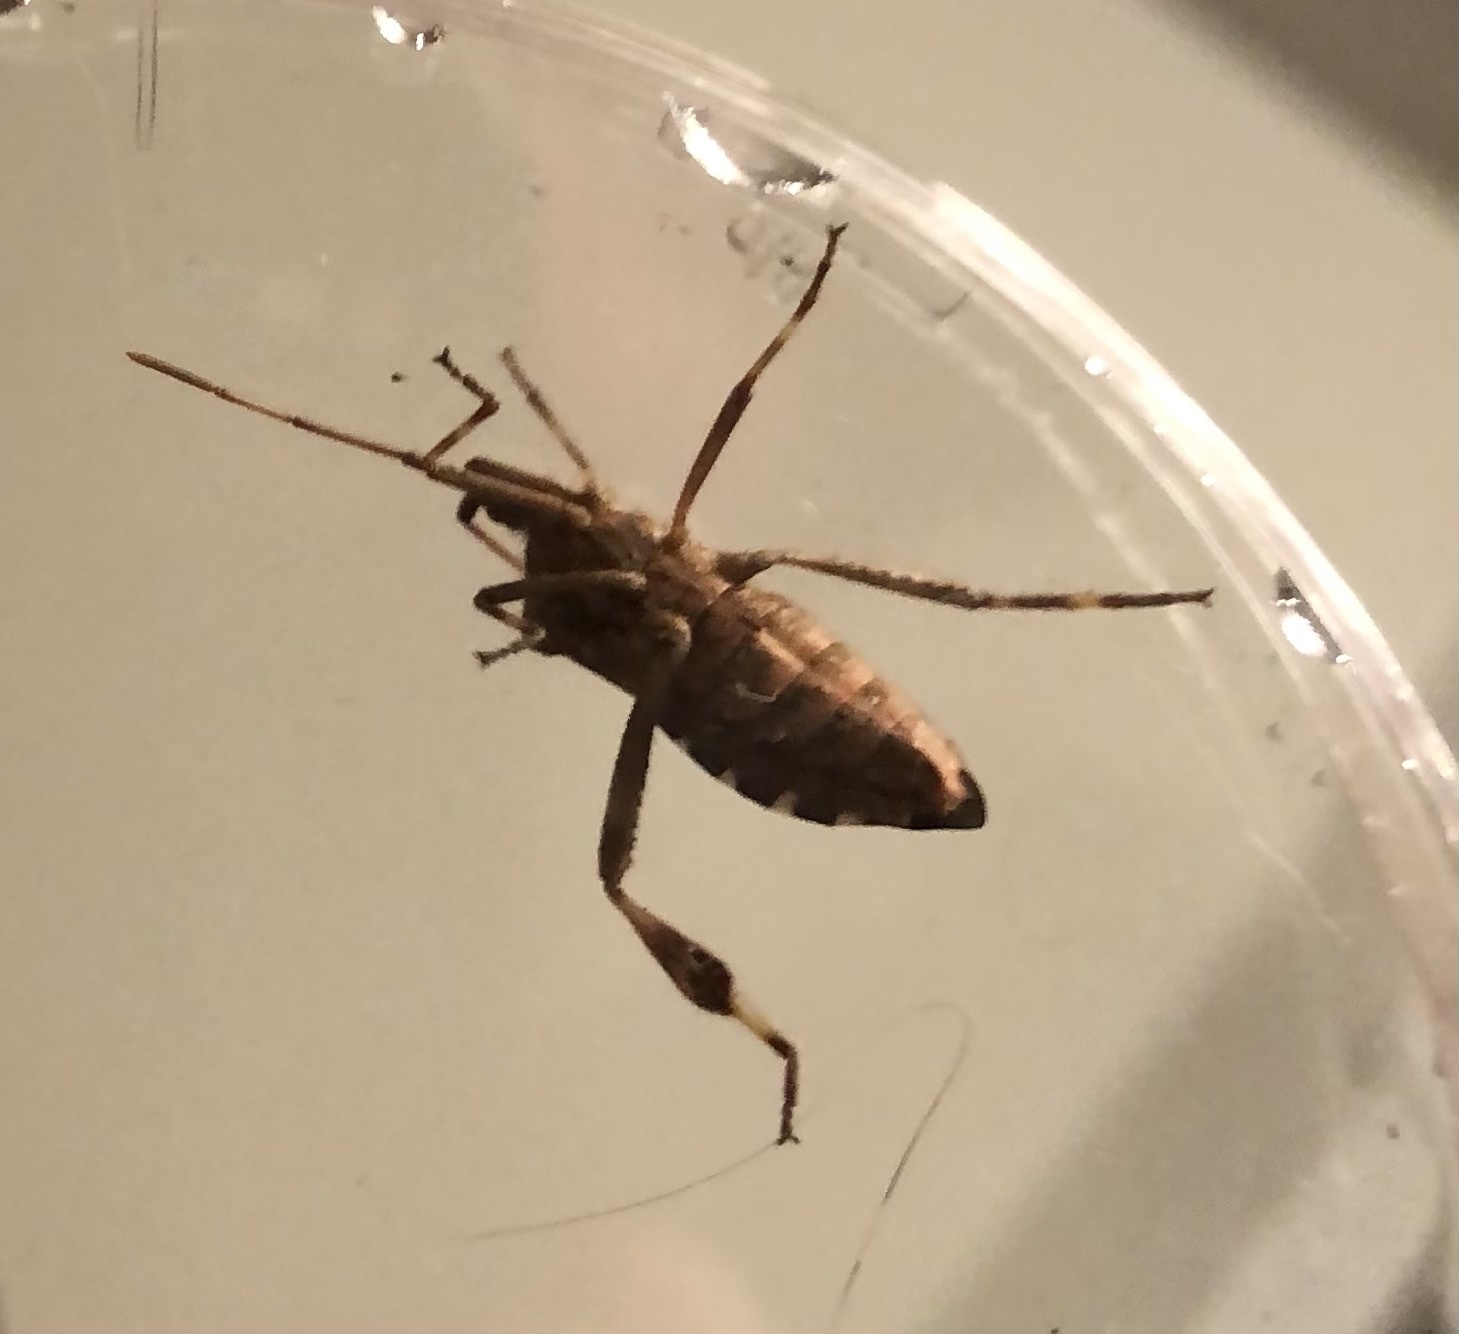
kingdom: Animalia
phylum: Arthropoda
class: Insecta
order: Hemiptera
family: Coreidae
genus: Leptoglossus
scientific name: Leptoglossus occidentalis
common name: Western conifer-seed bug
